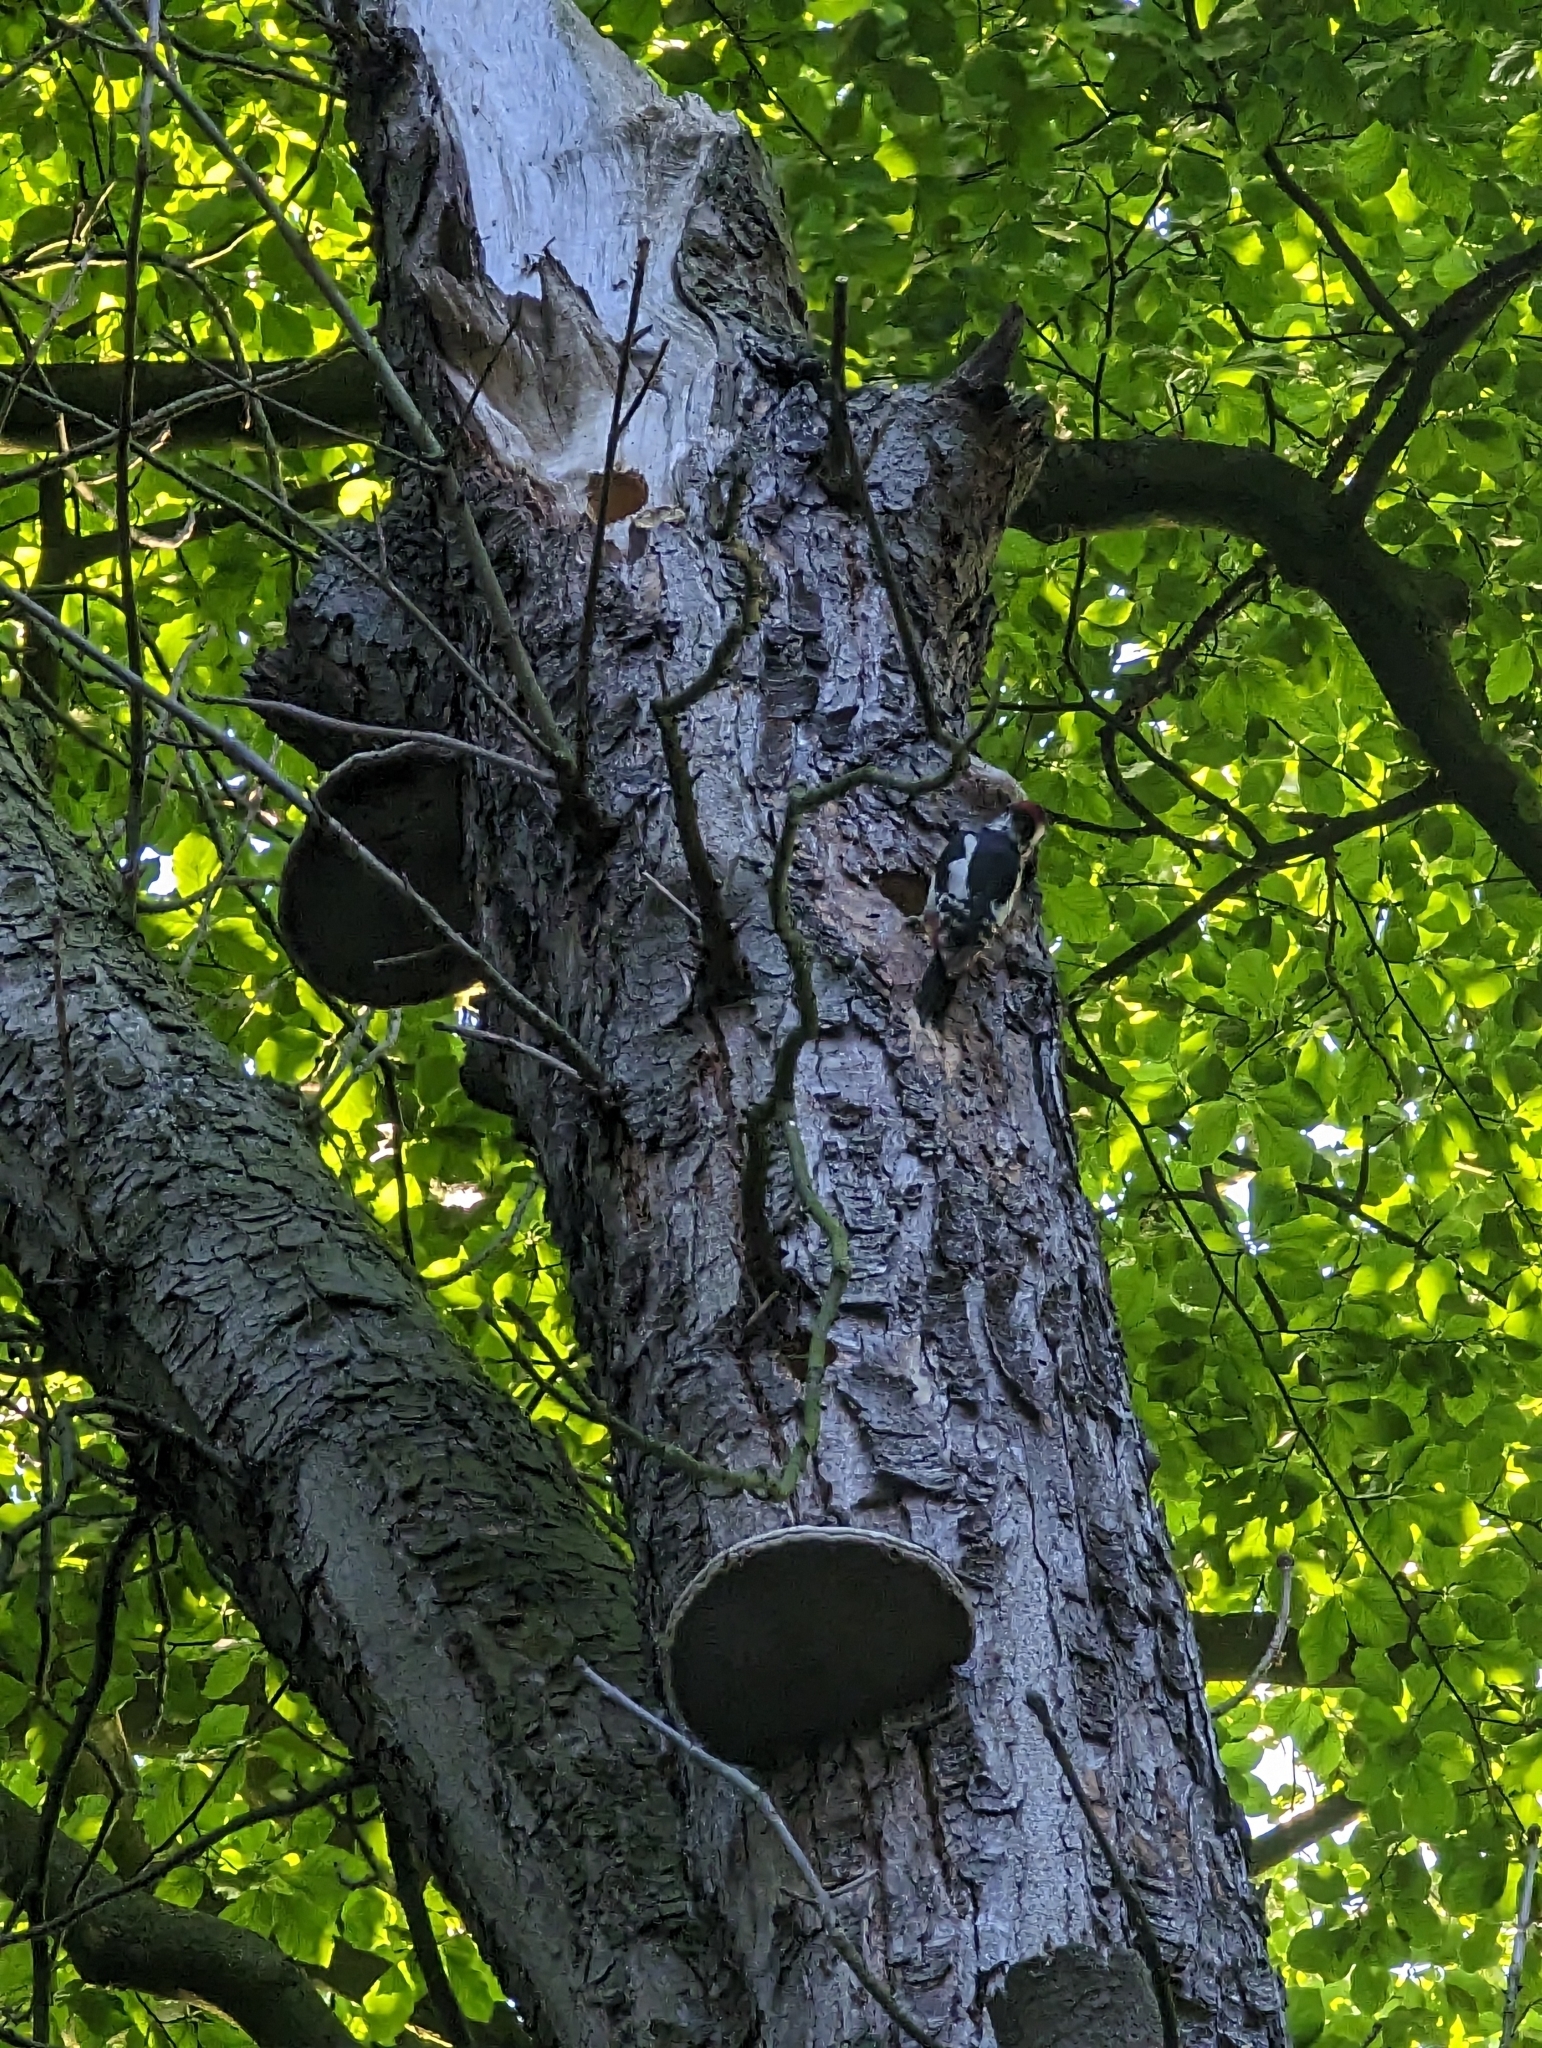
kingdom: Animalia
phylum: Chordata
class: Aves
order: Piciformes
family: Picidae
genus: Dendrocopos
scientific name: Dendrocopos major
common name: Great spotted woodpecker
